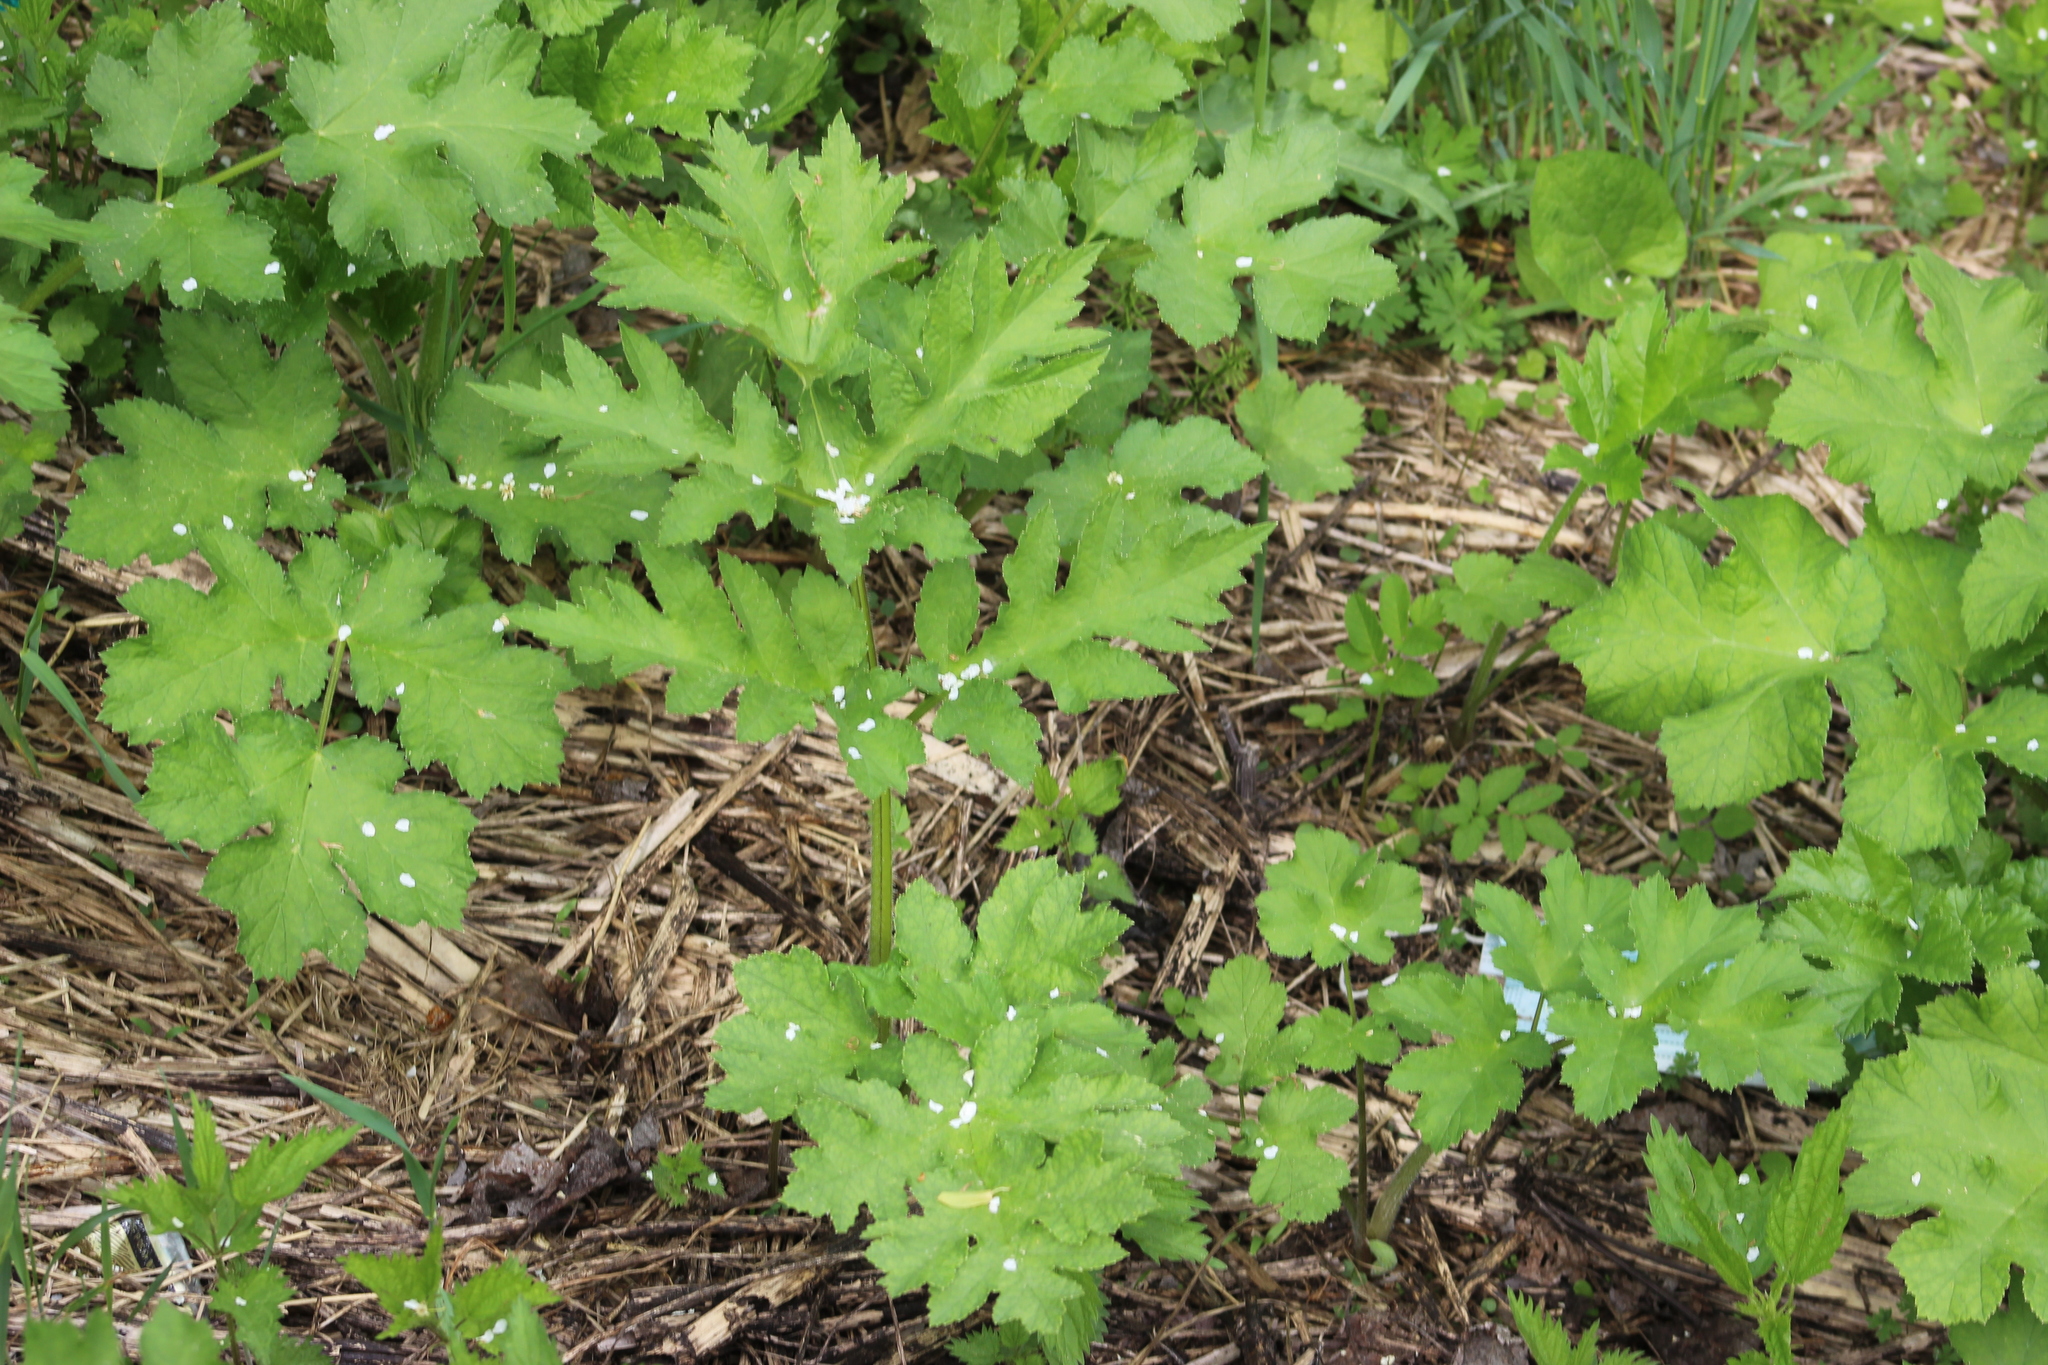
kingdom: Plantae
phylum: Tracheophyta
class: Magnoliopsida
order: Apiales
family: Apiaceae
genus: Heracleum
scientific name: Heracleum sphondylium
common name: Hogweed
